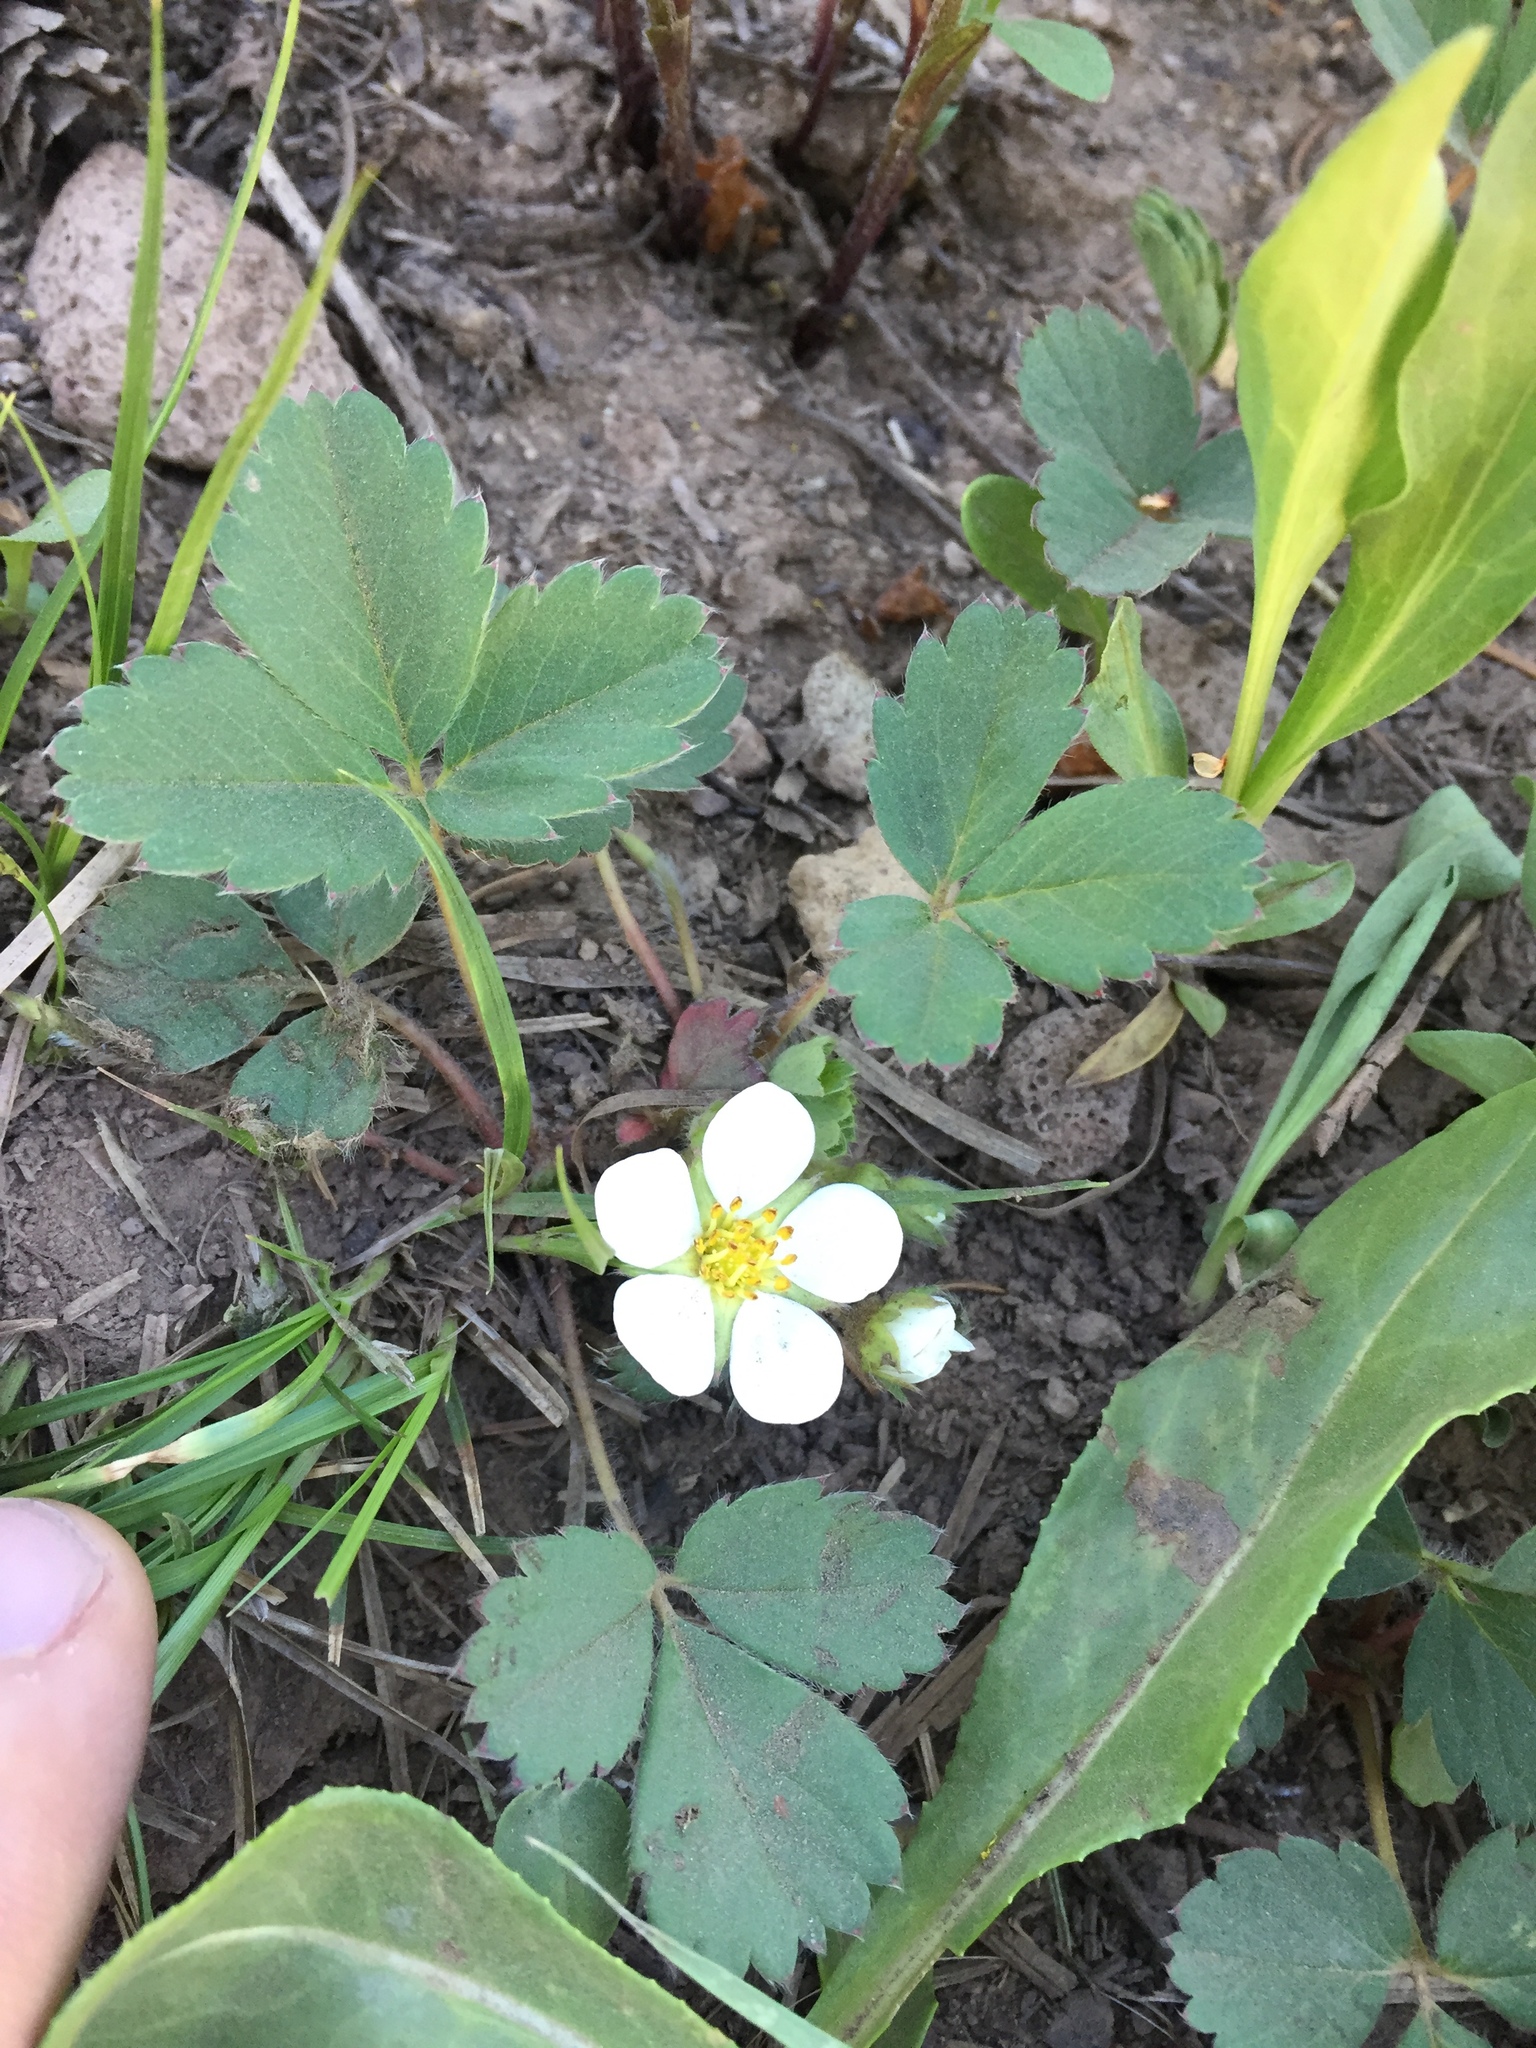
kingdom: Plantae
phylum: Tracheophyta
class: Magnoliopsida
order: Rosales
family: Rosaceae
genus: Fragaria
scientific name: Fragaria virginiana
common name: Thickleaved wild strawberry
